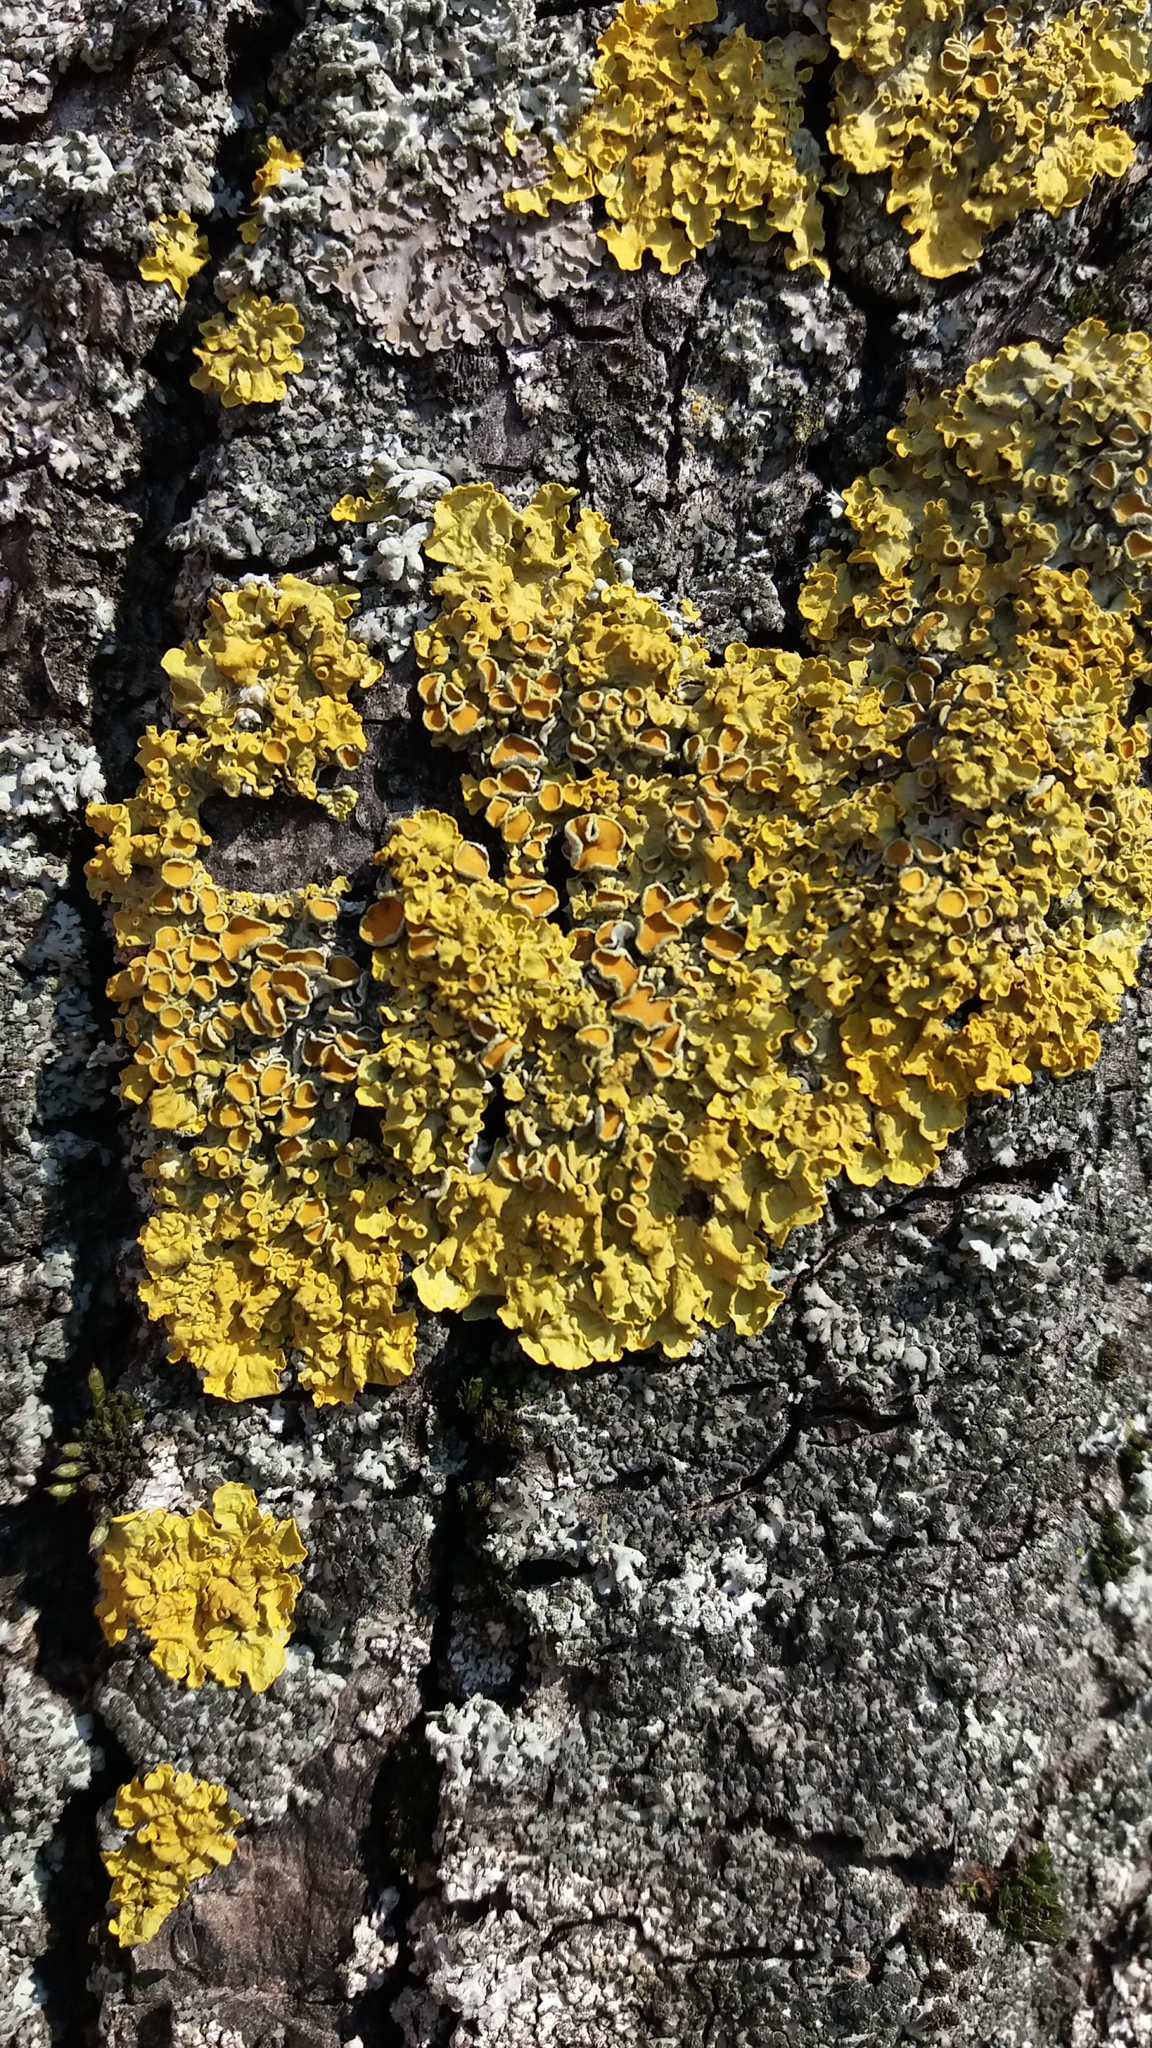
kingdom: Fungi
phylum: Ascomycota
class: Lecanoromycetes
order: Teloschistales
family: Teloschistaceae
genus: Xanthoria
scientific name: Xanthoria parietina
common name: Common orange lichen
